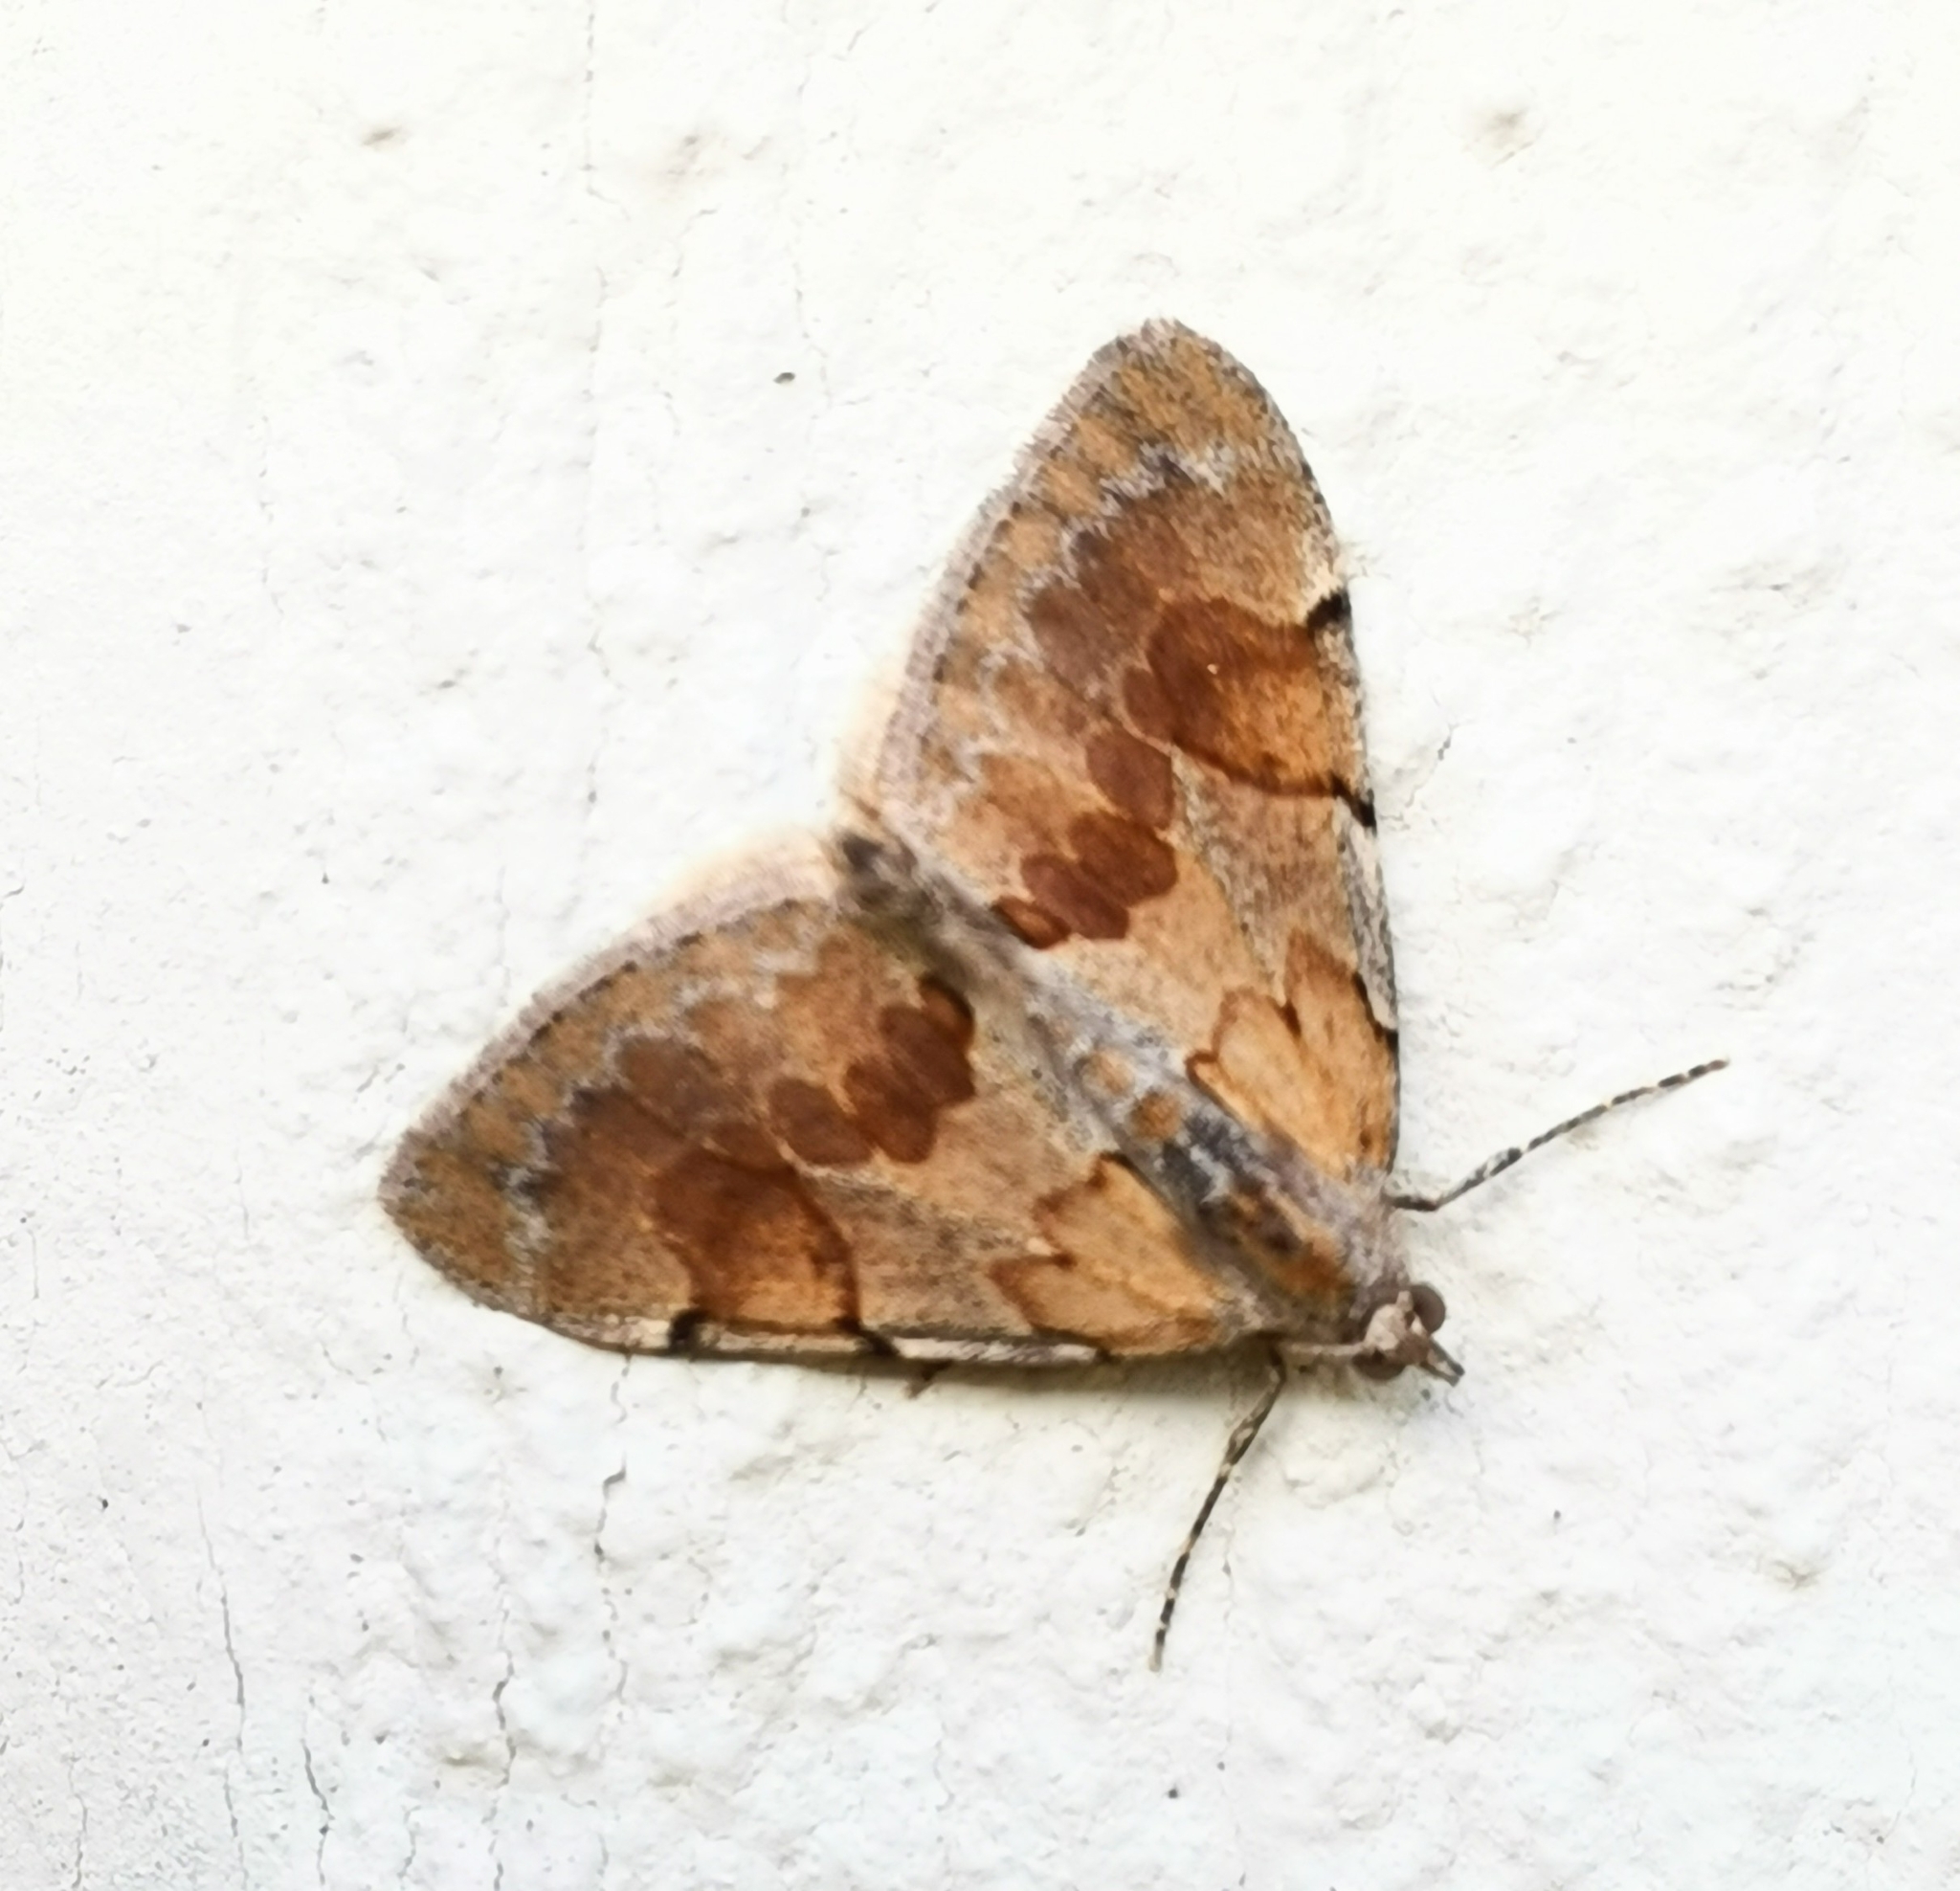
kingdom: Animalia
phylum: Arthropoda
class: Insecta
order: Lepidoptera
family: Geometridae
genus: Thera
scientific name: Thera obeliscata
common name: Grey pine carpet
